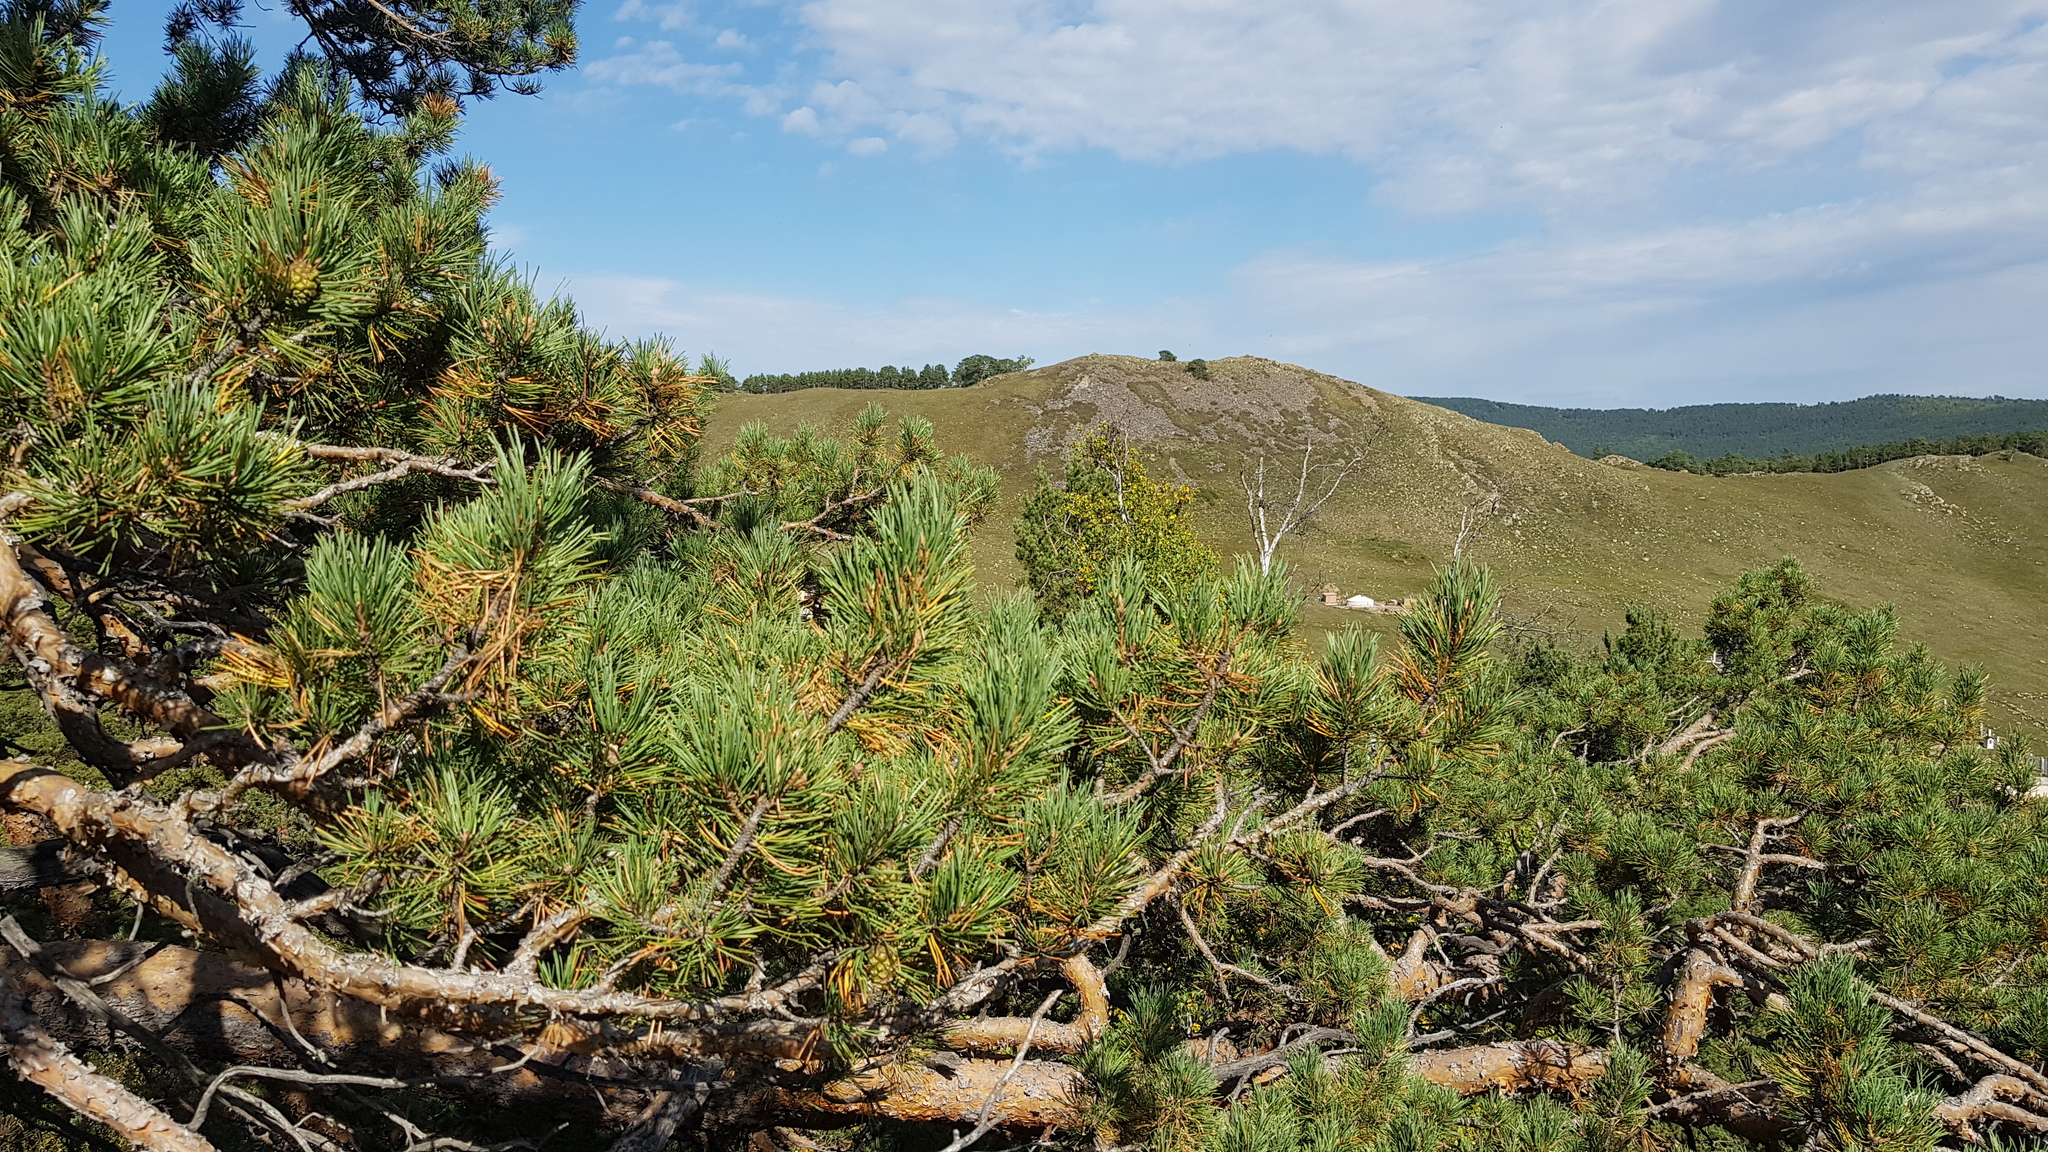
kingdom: Plantae
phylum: Tracheophyta
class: Pinopsida
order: Pinales
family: Pinaceae
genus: Pinus
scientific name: Pinus sylvestris
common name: Scots pine
